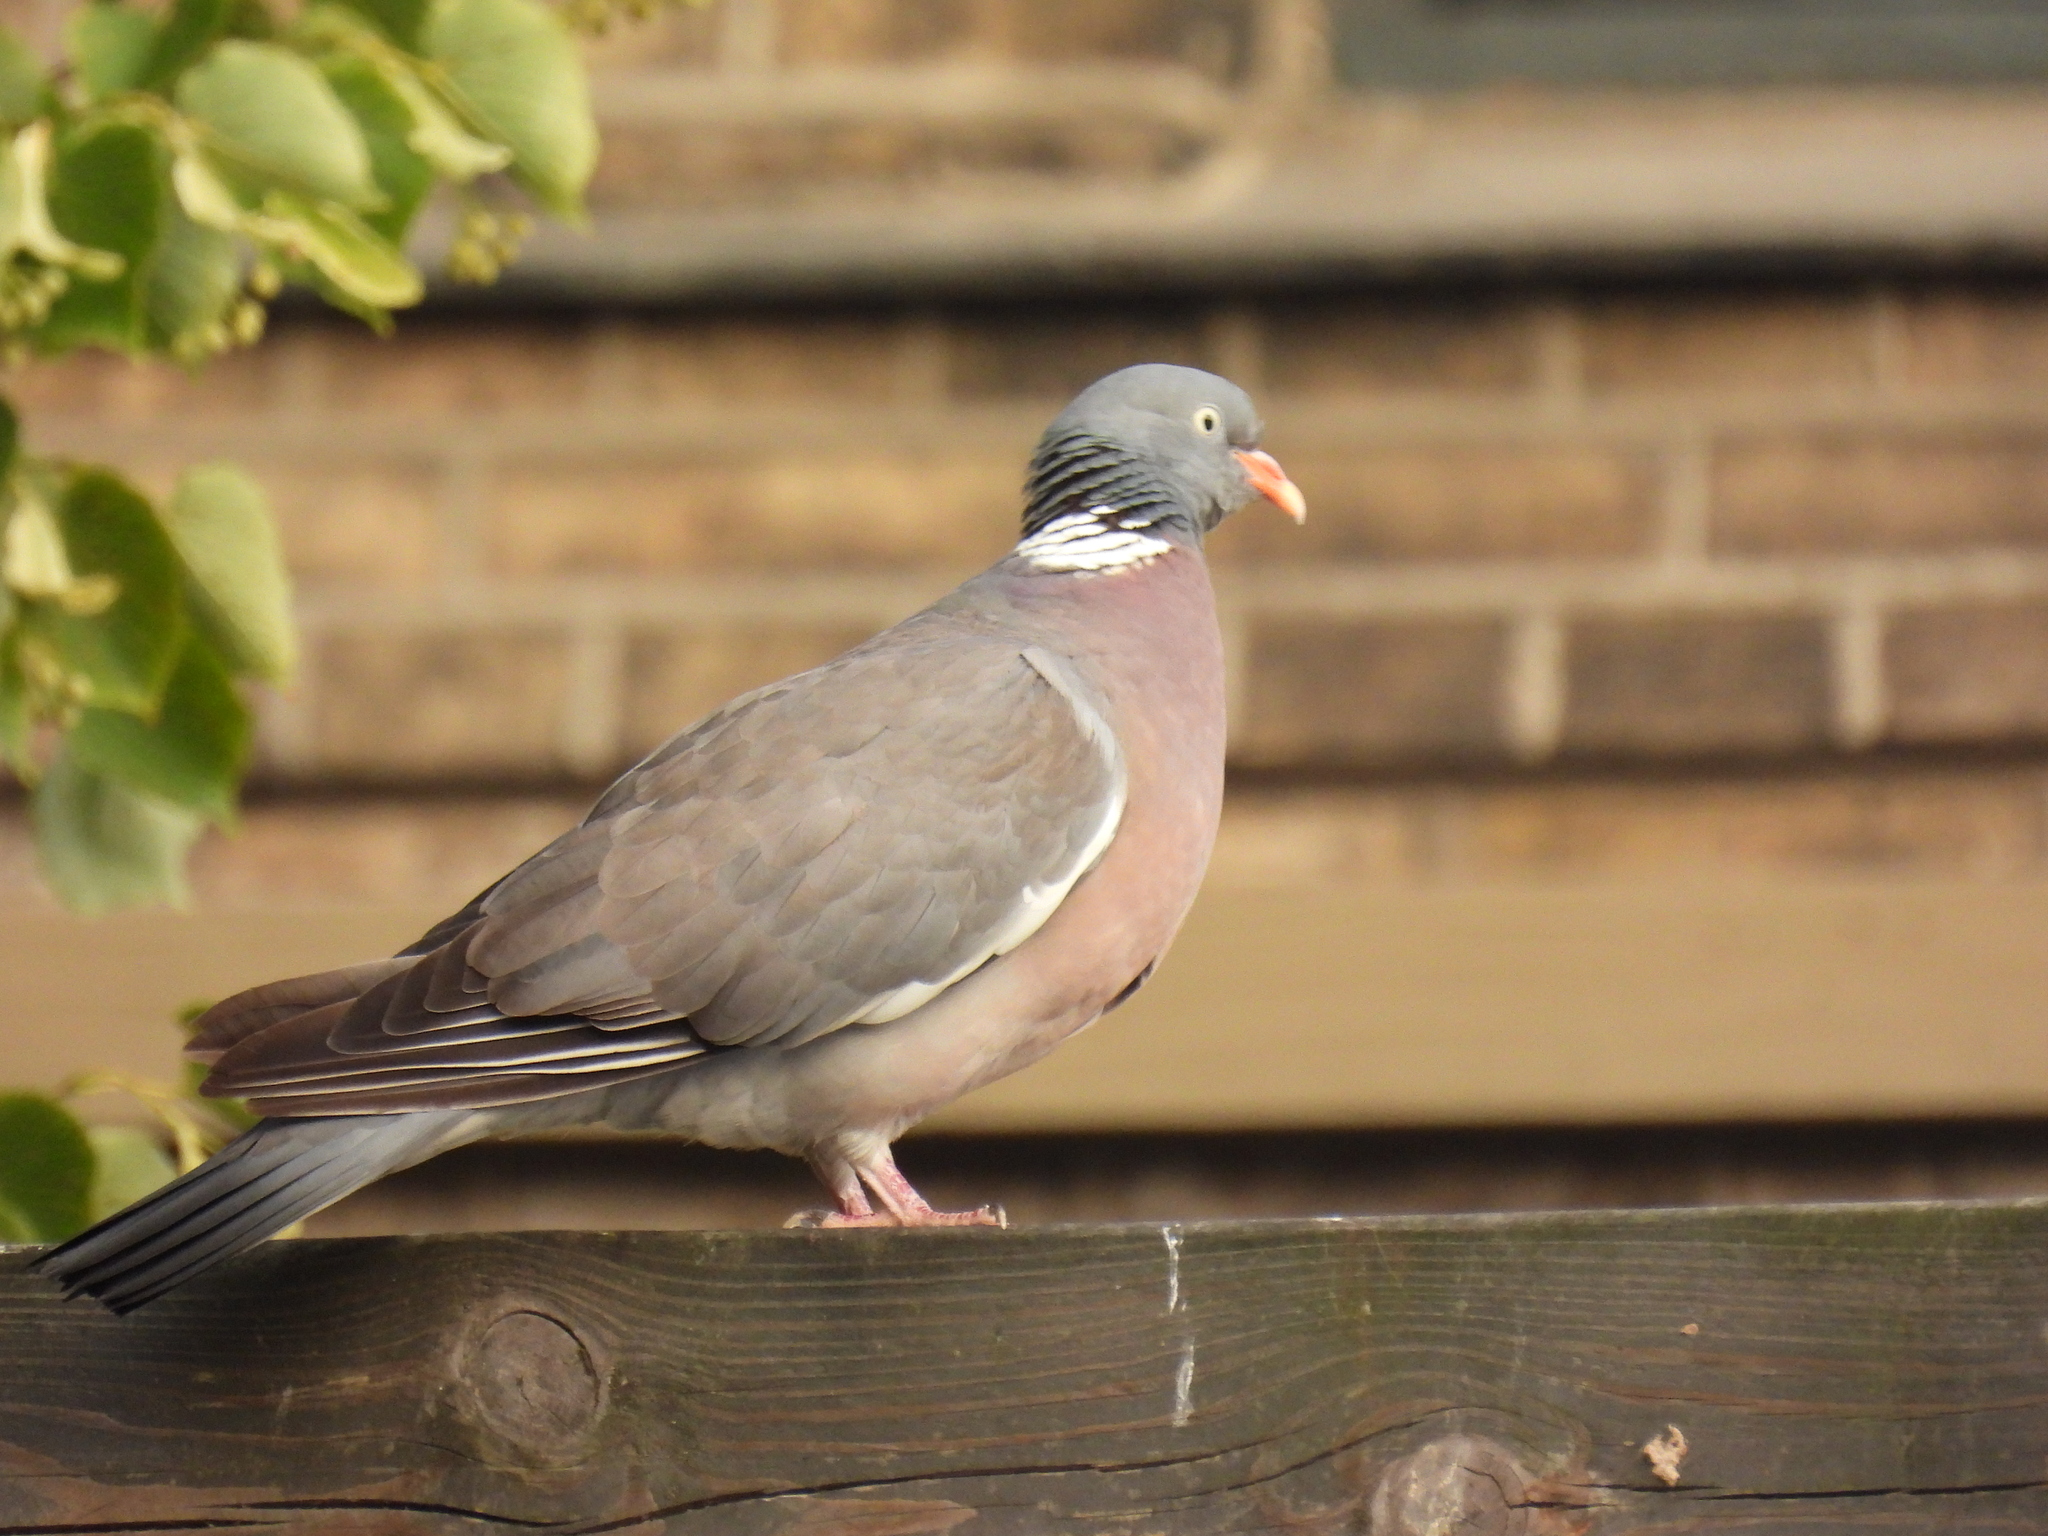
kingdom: Animalia
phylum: Chordata
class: Aves
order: Columbiformes
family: Columbidae
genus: Columba
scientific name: Columba palumbus
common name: Common wood pigeon
